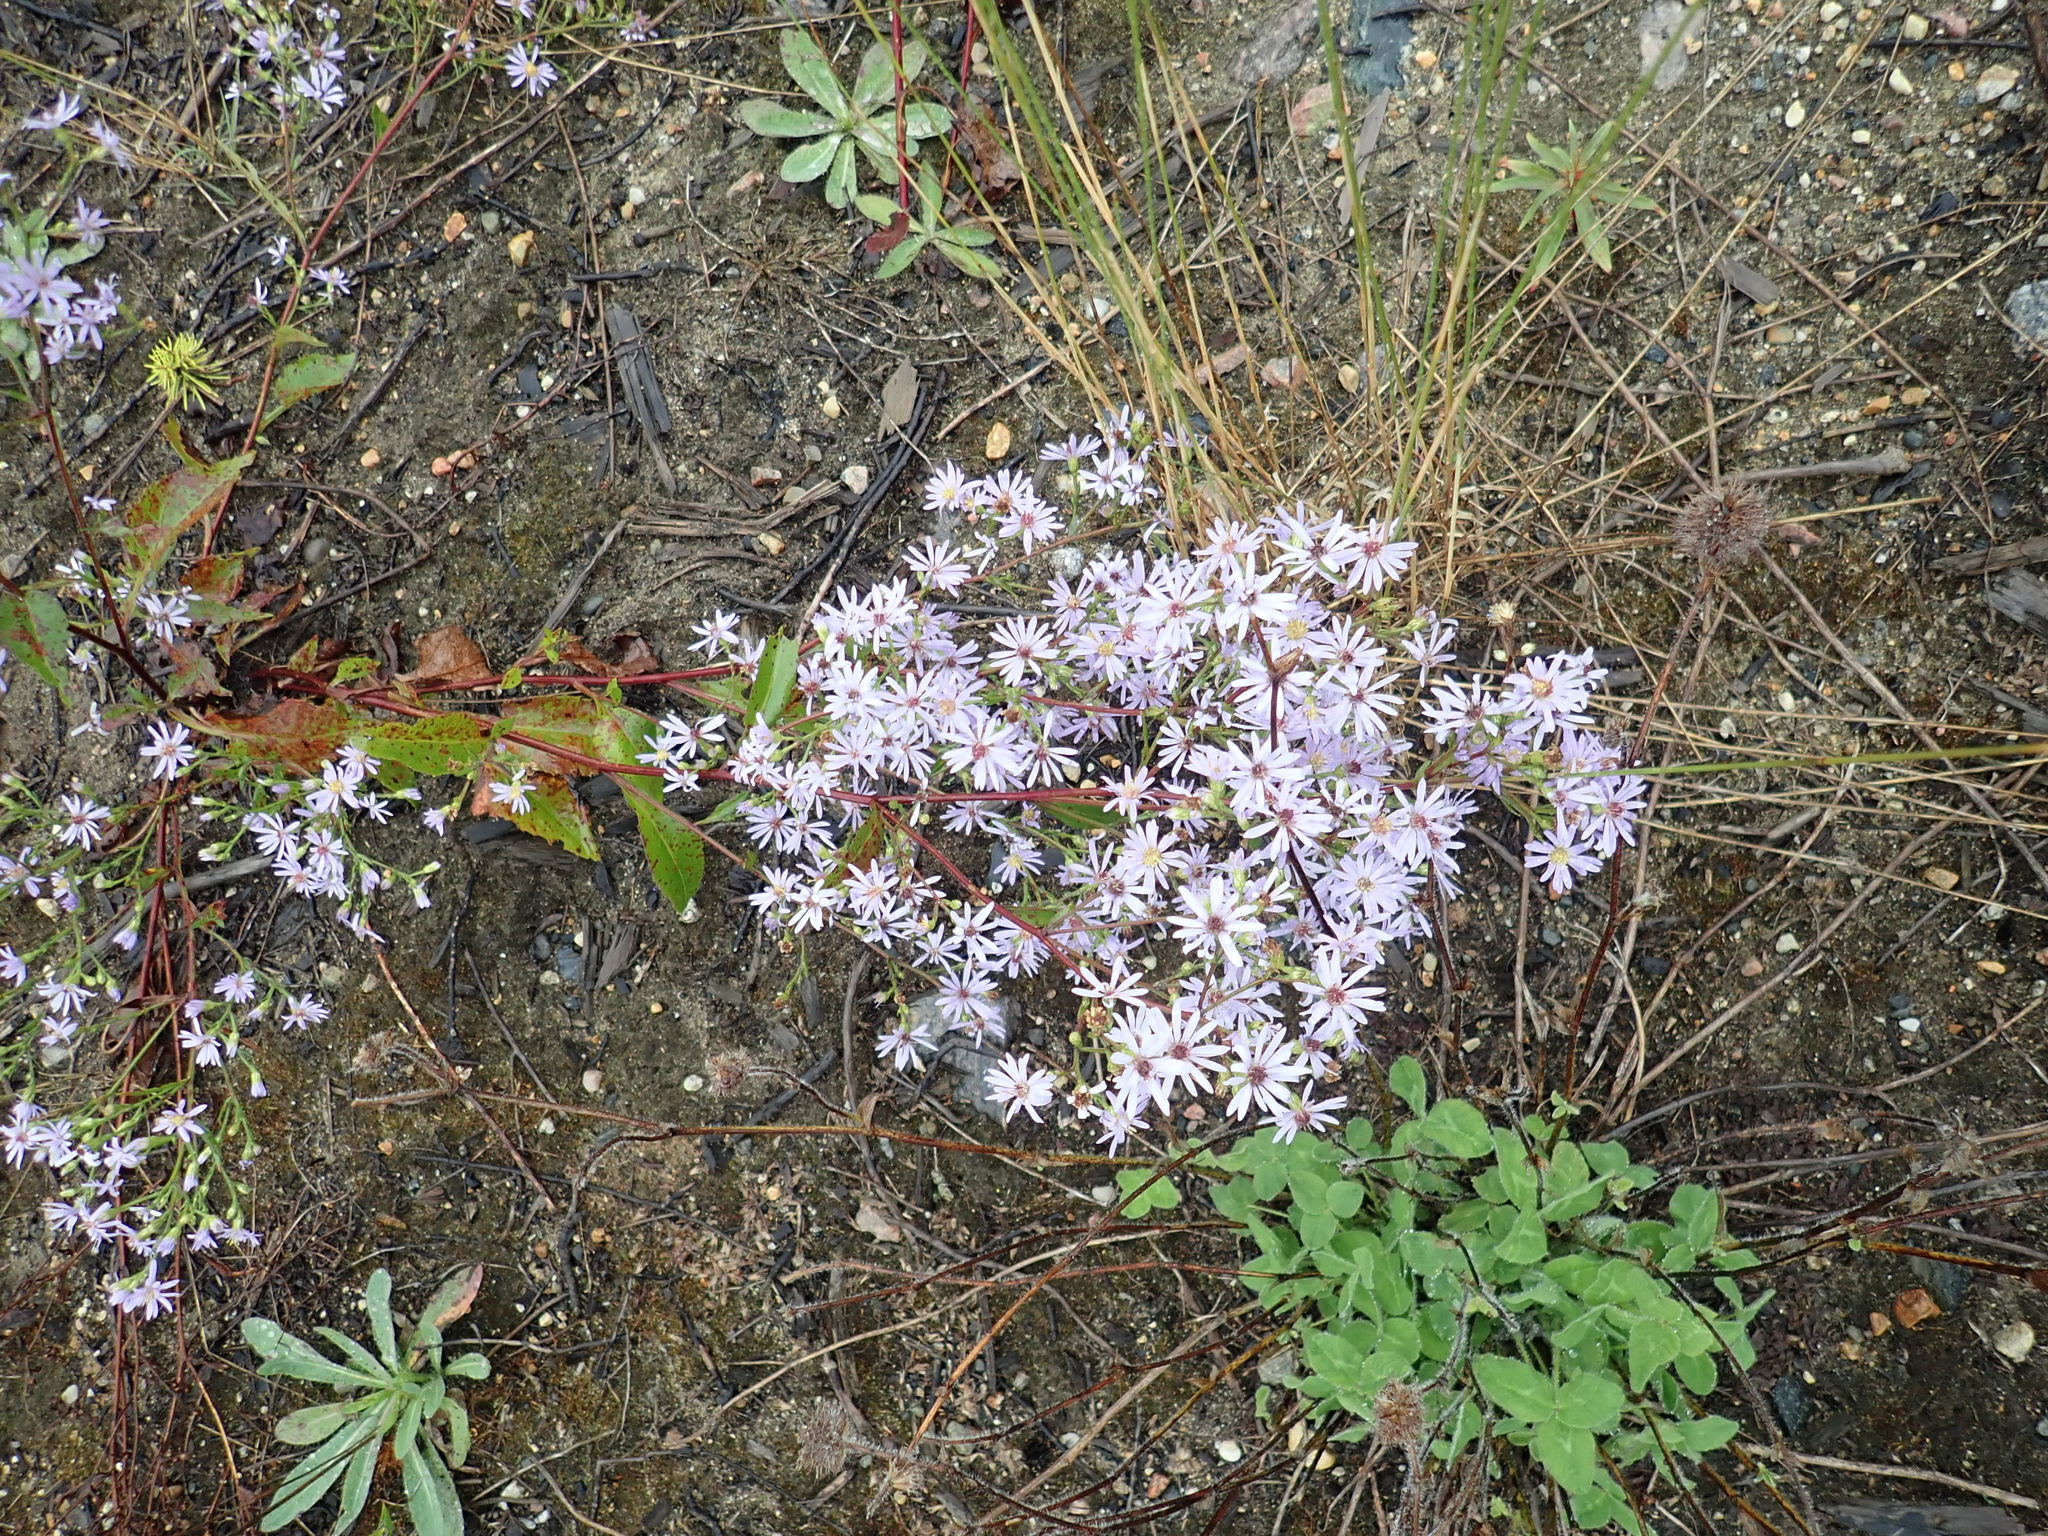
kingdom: Plantae
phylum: Tracheophyta
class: Magnoliopsida
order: Asterales
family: Asteraceae
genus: Symphyotrichum
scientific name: Symphyotrichum ciliolatum
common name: Fringed blue aster
